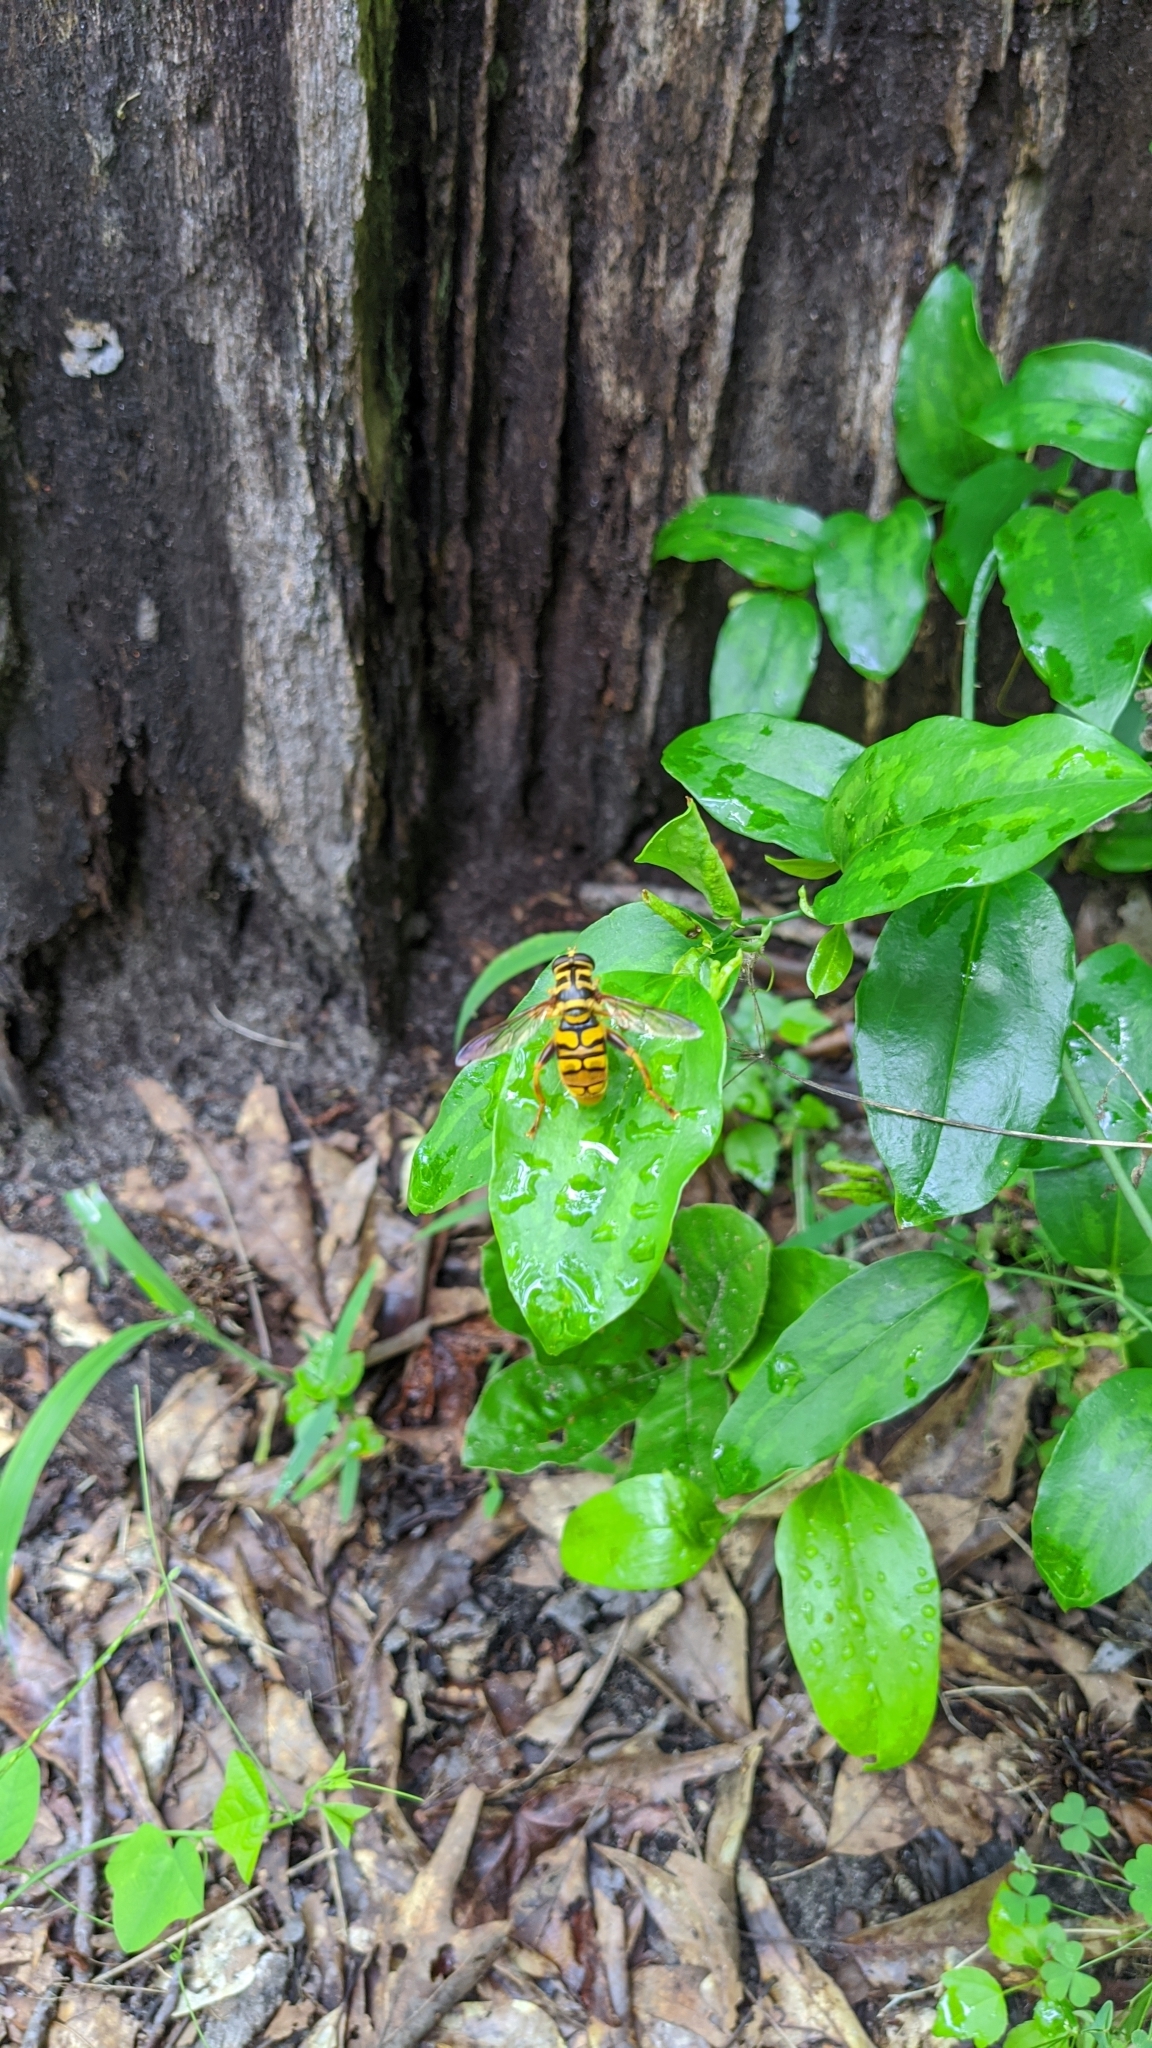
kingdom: Animalia
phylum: Arthropoda
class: Insecta
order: Diptera
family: Syrphidae
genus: Milesia
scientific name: Milesia virginiensis
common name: Virginia giant
